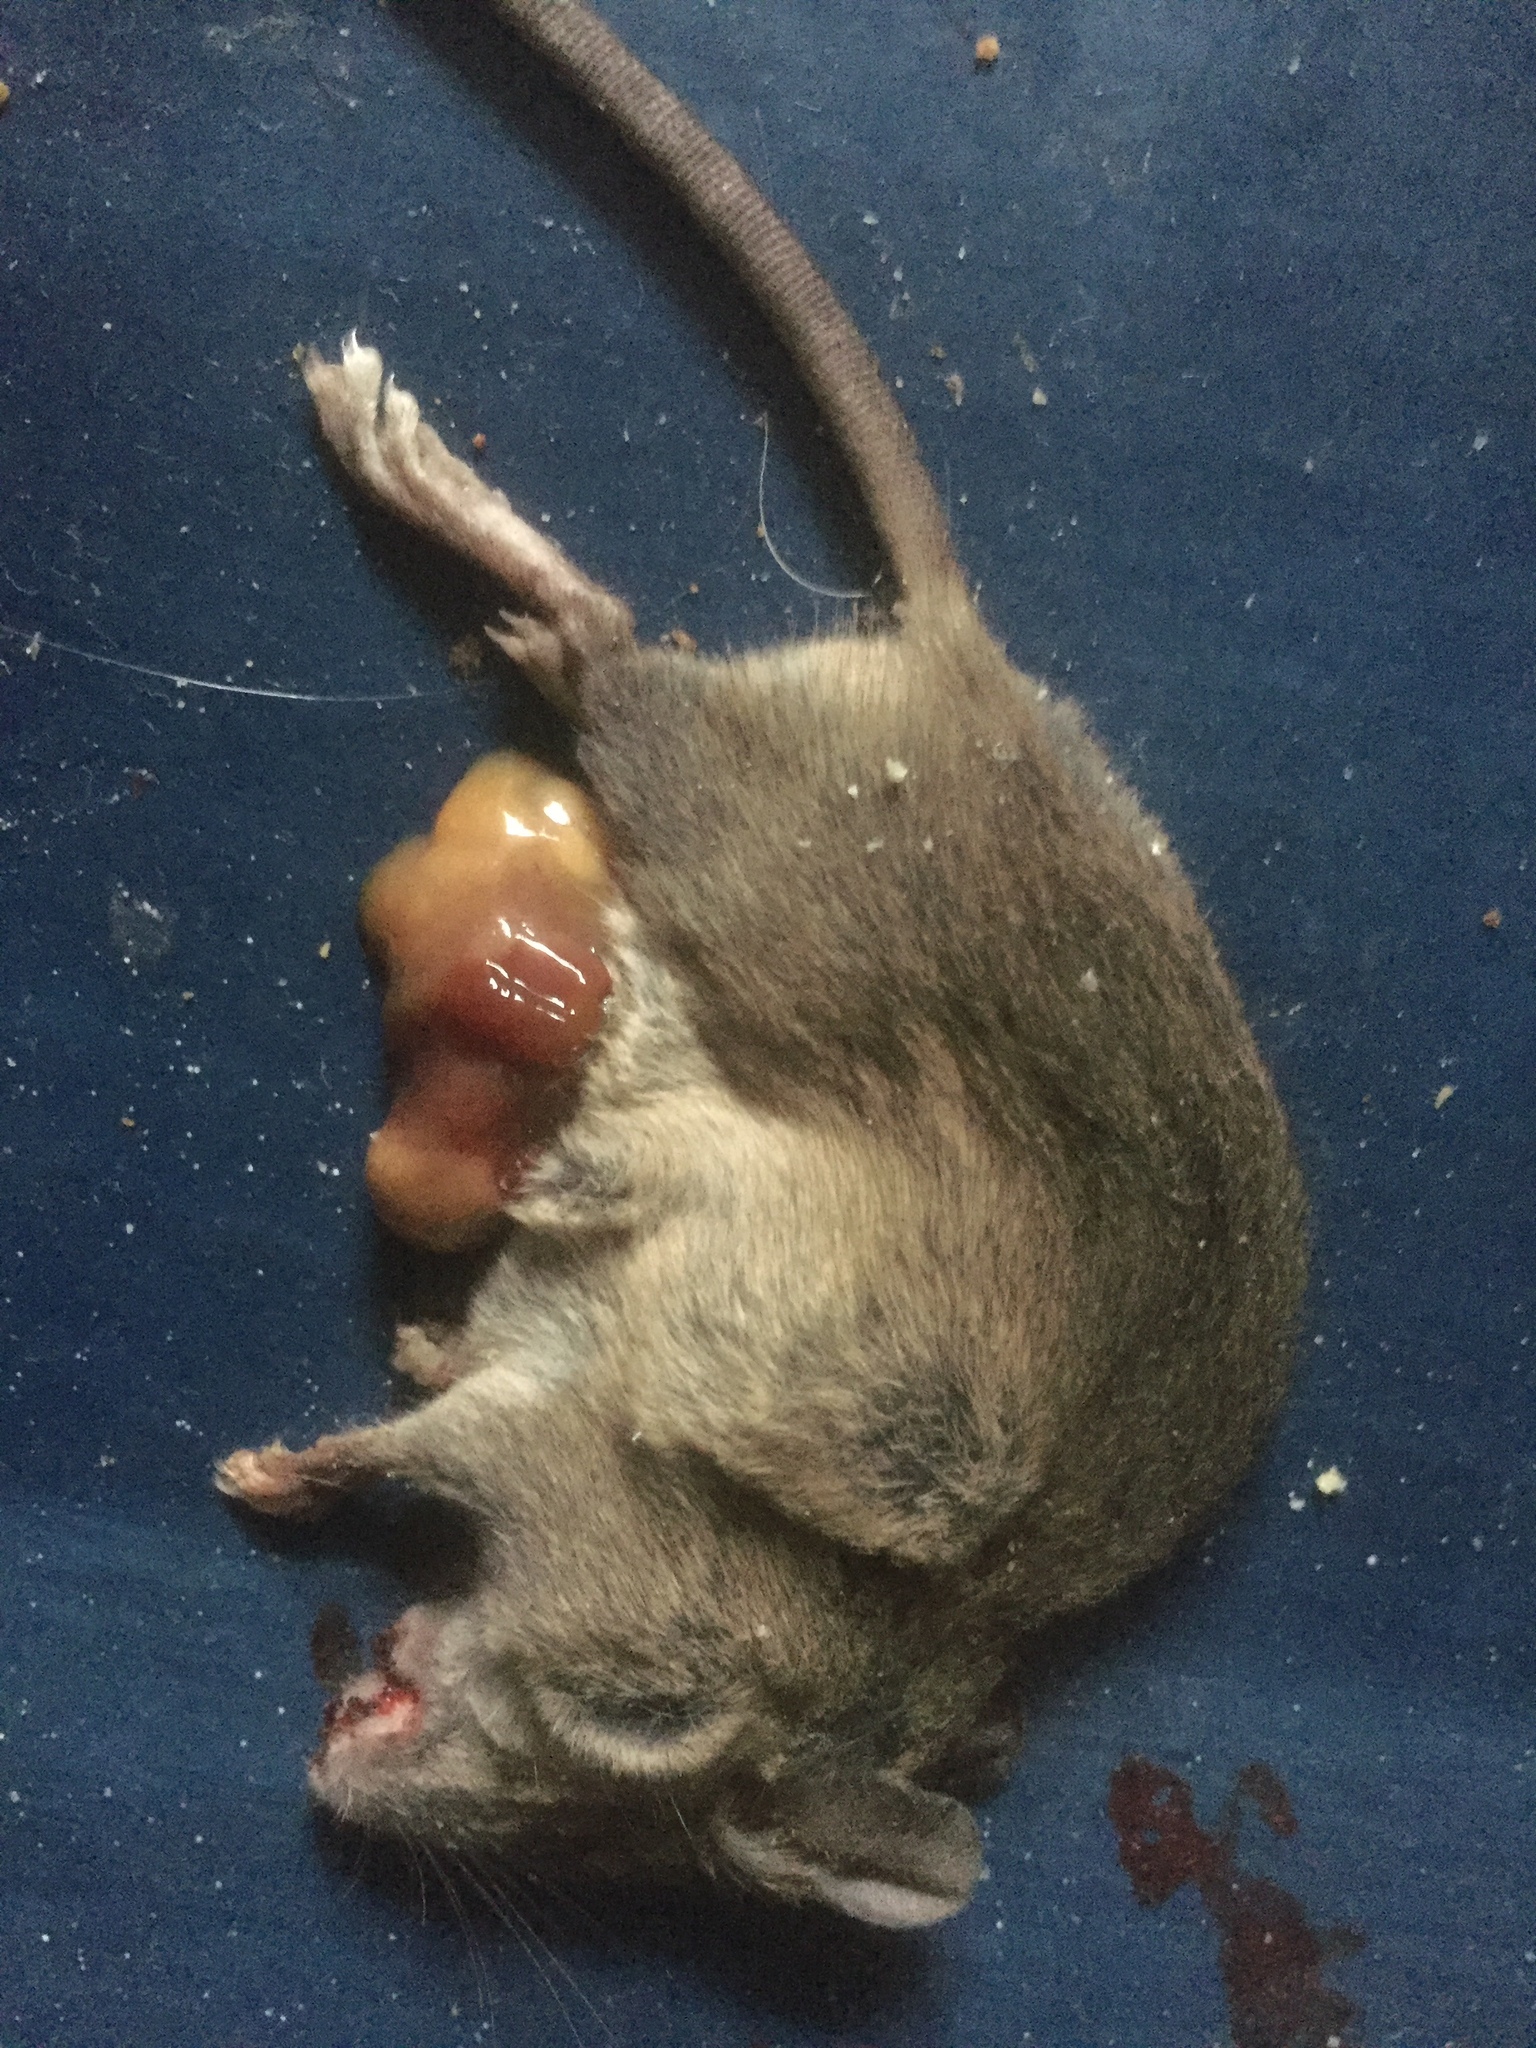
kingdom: Animalia
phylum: Chordata
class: Mammalia
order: Rodentia
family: Muridae
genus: Mus
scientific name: Mus musculus
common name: House mouse
